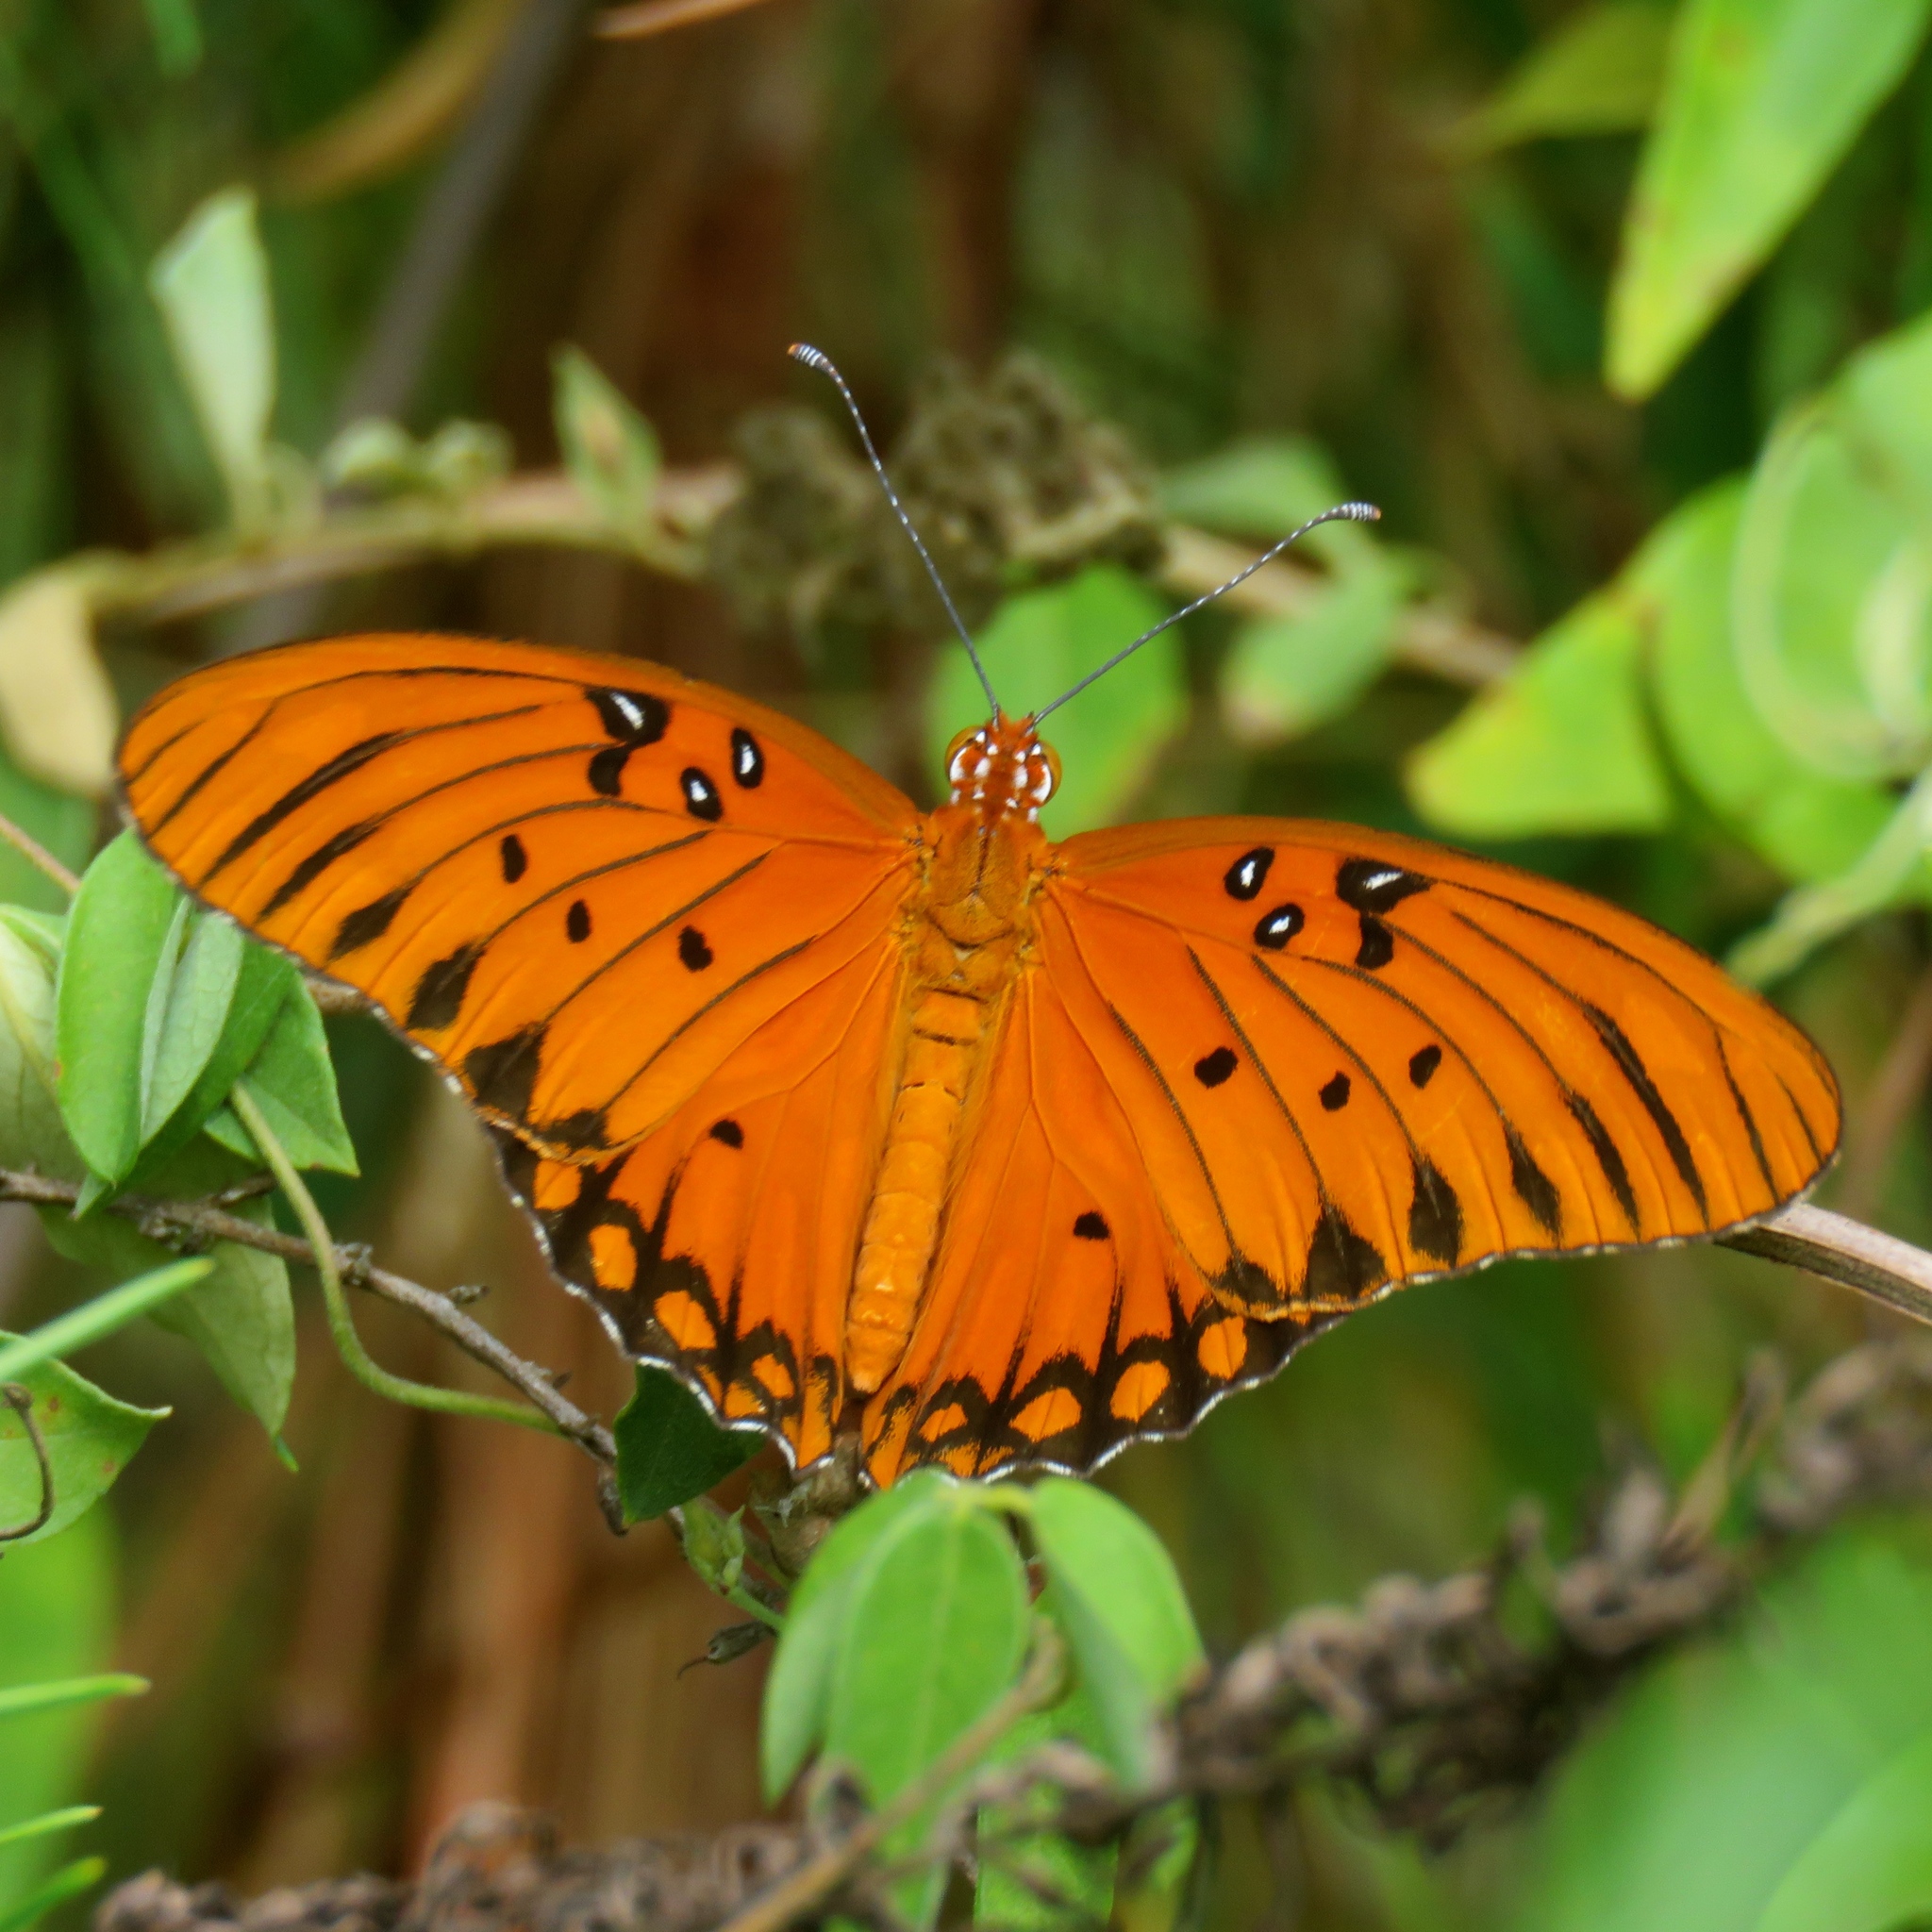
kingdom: Animalia
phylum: Arthropoda
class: Insecta
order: Lepidoptera
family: Nymphalidae
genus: Dione
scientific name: Dione vanillae
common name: Gulf fritillary
